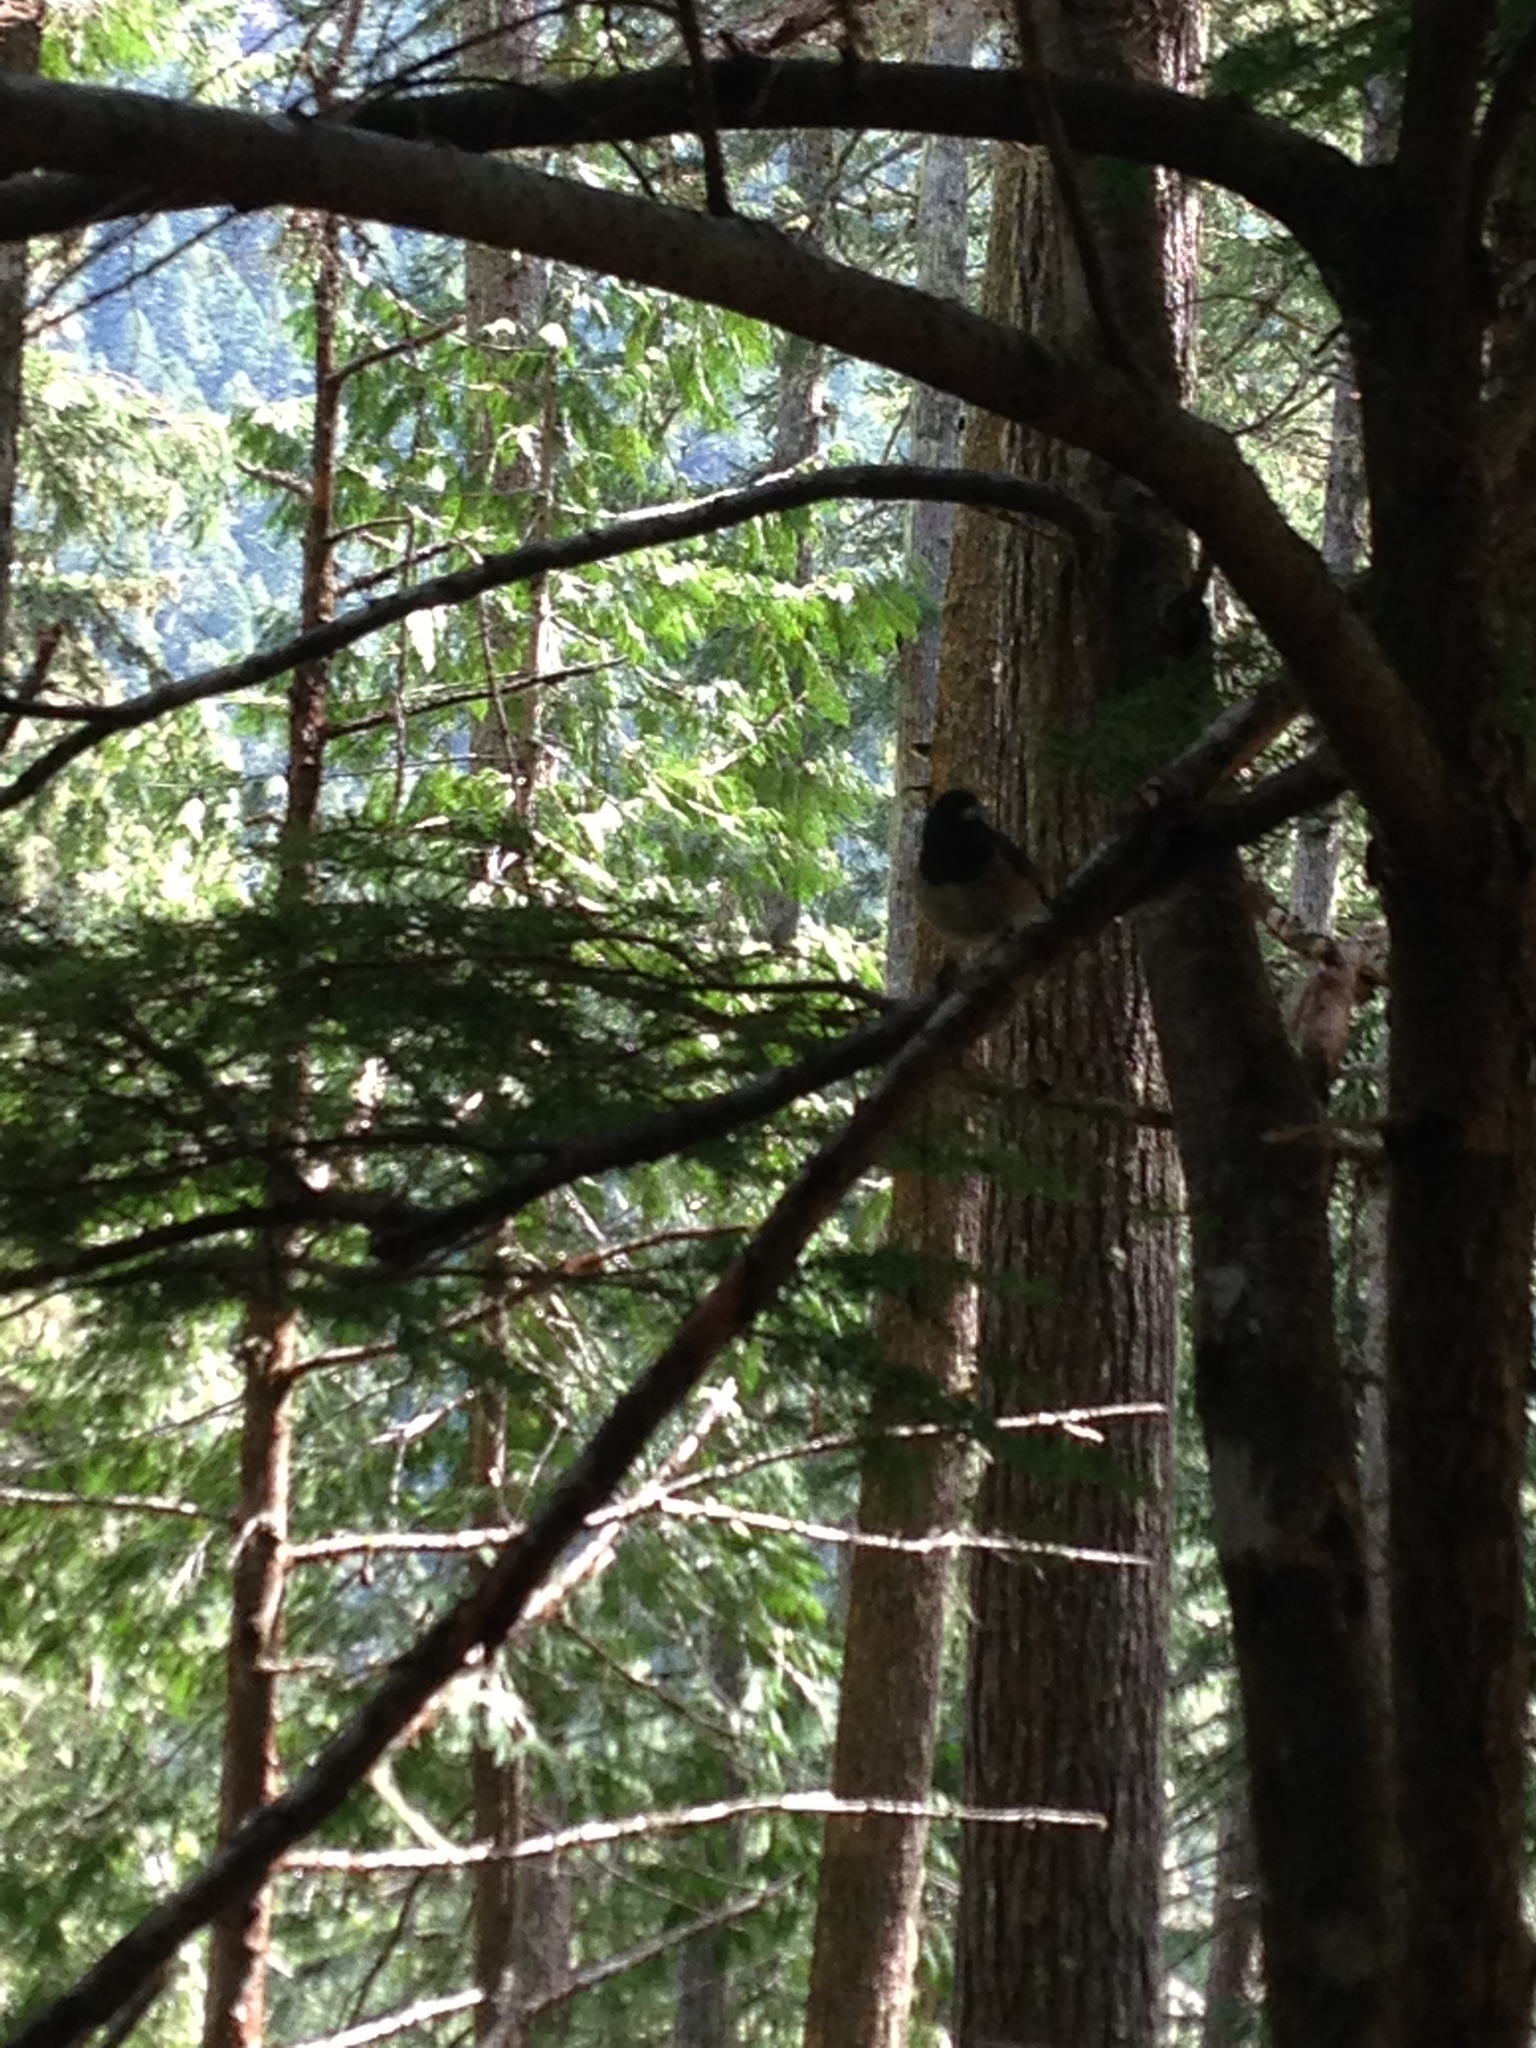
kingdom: Animalia
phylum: Chordata
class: Aves
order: Passeriformes
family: Passerellidae
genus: Junco
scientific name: Junco hyemalis
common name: Dark-eyed junco
